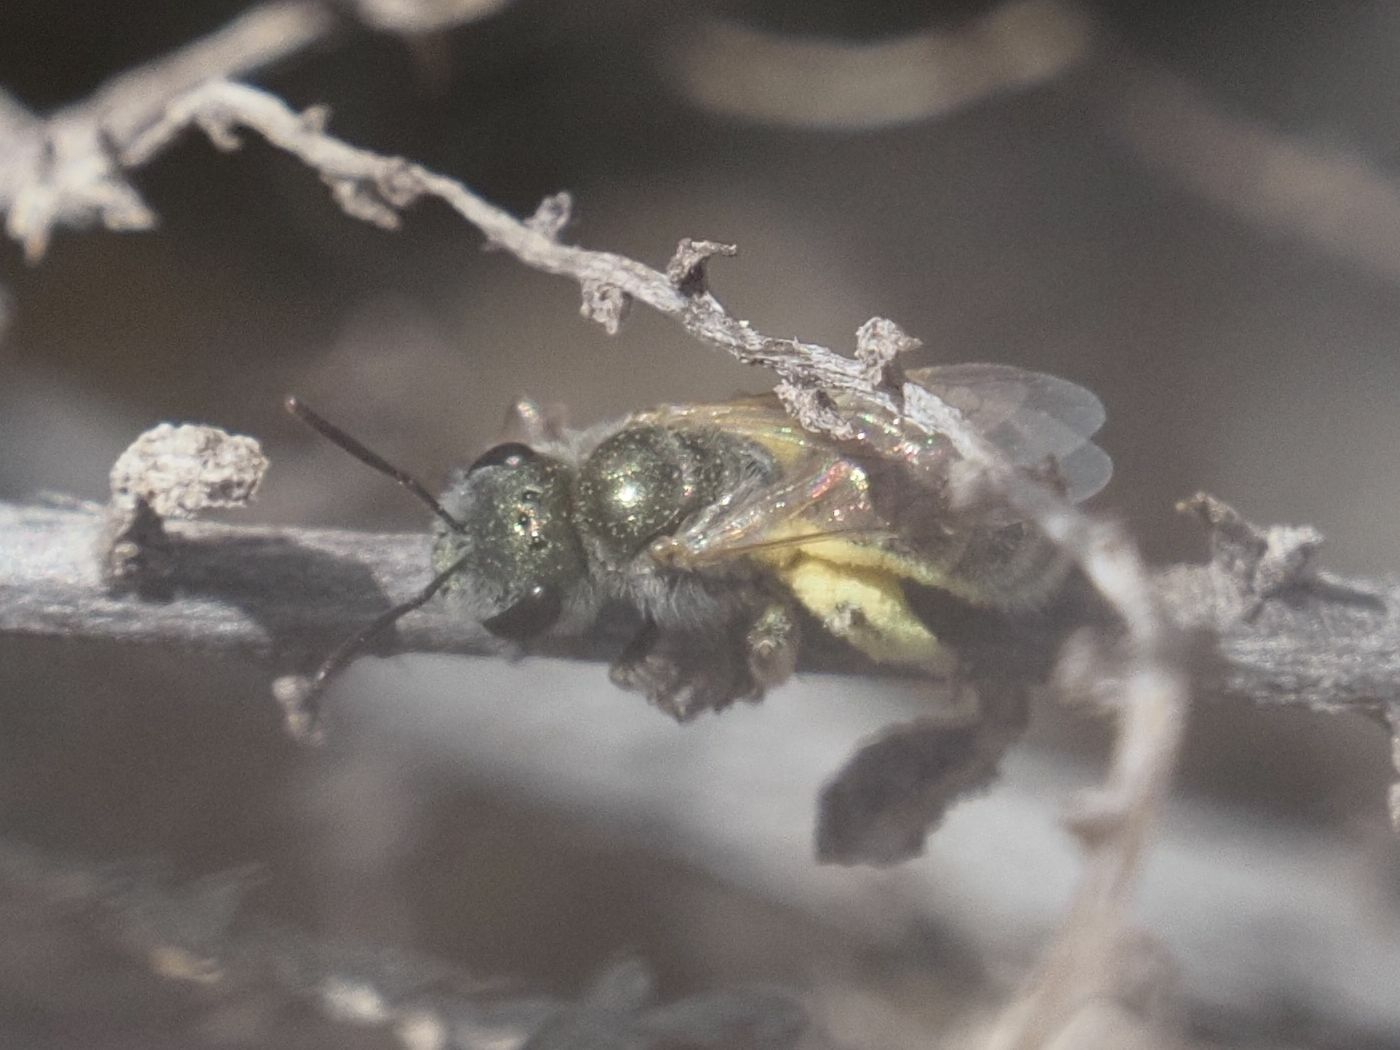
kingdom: Animalia
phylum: Arthropoda
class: Insecta
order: Hymenoptera
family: Halictidae
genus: Halictus
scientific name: Halictus concinnus
